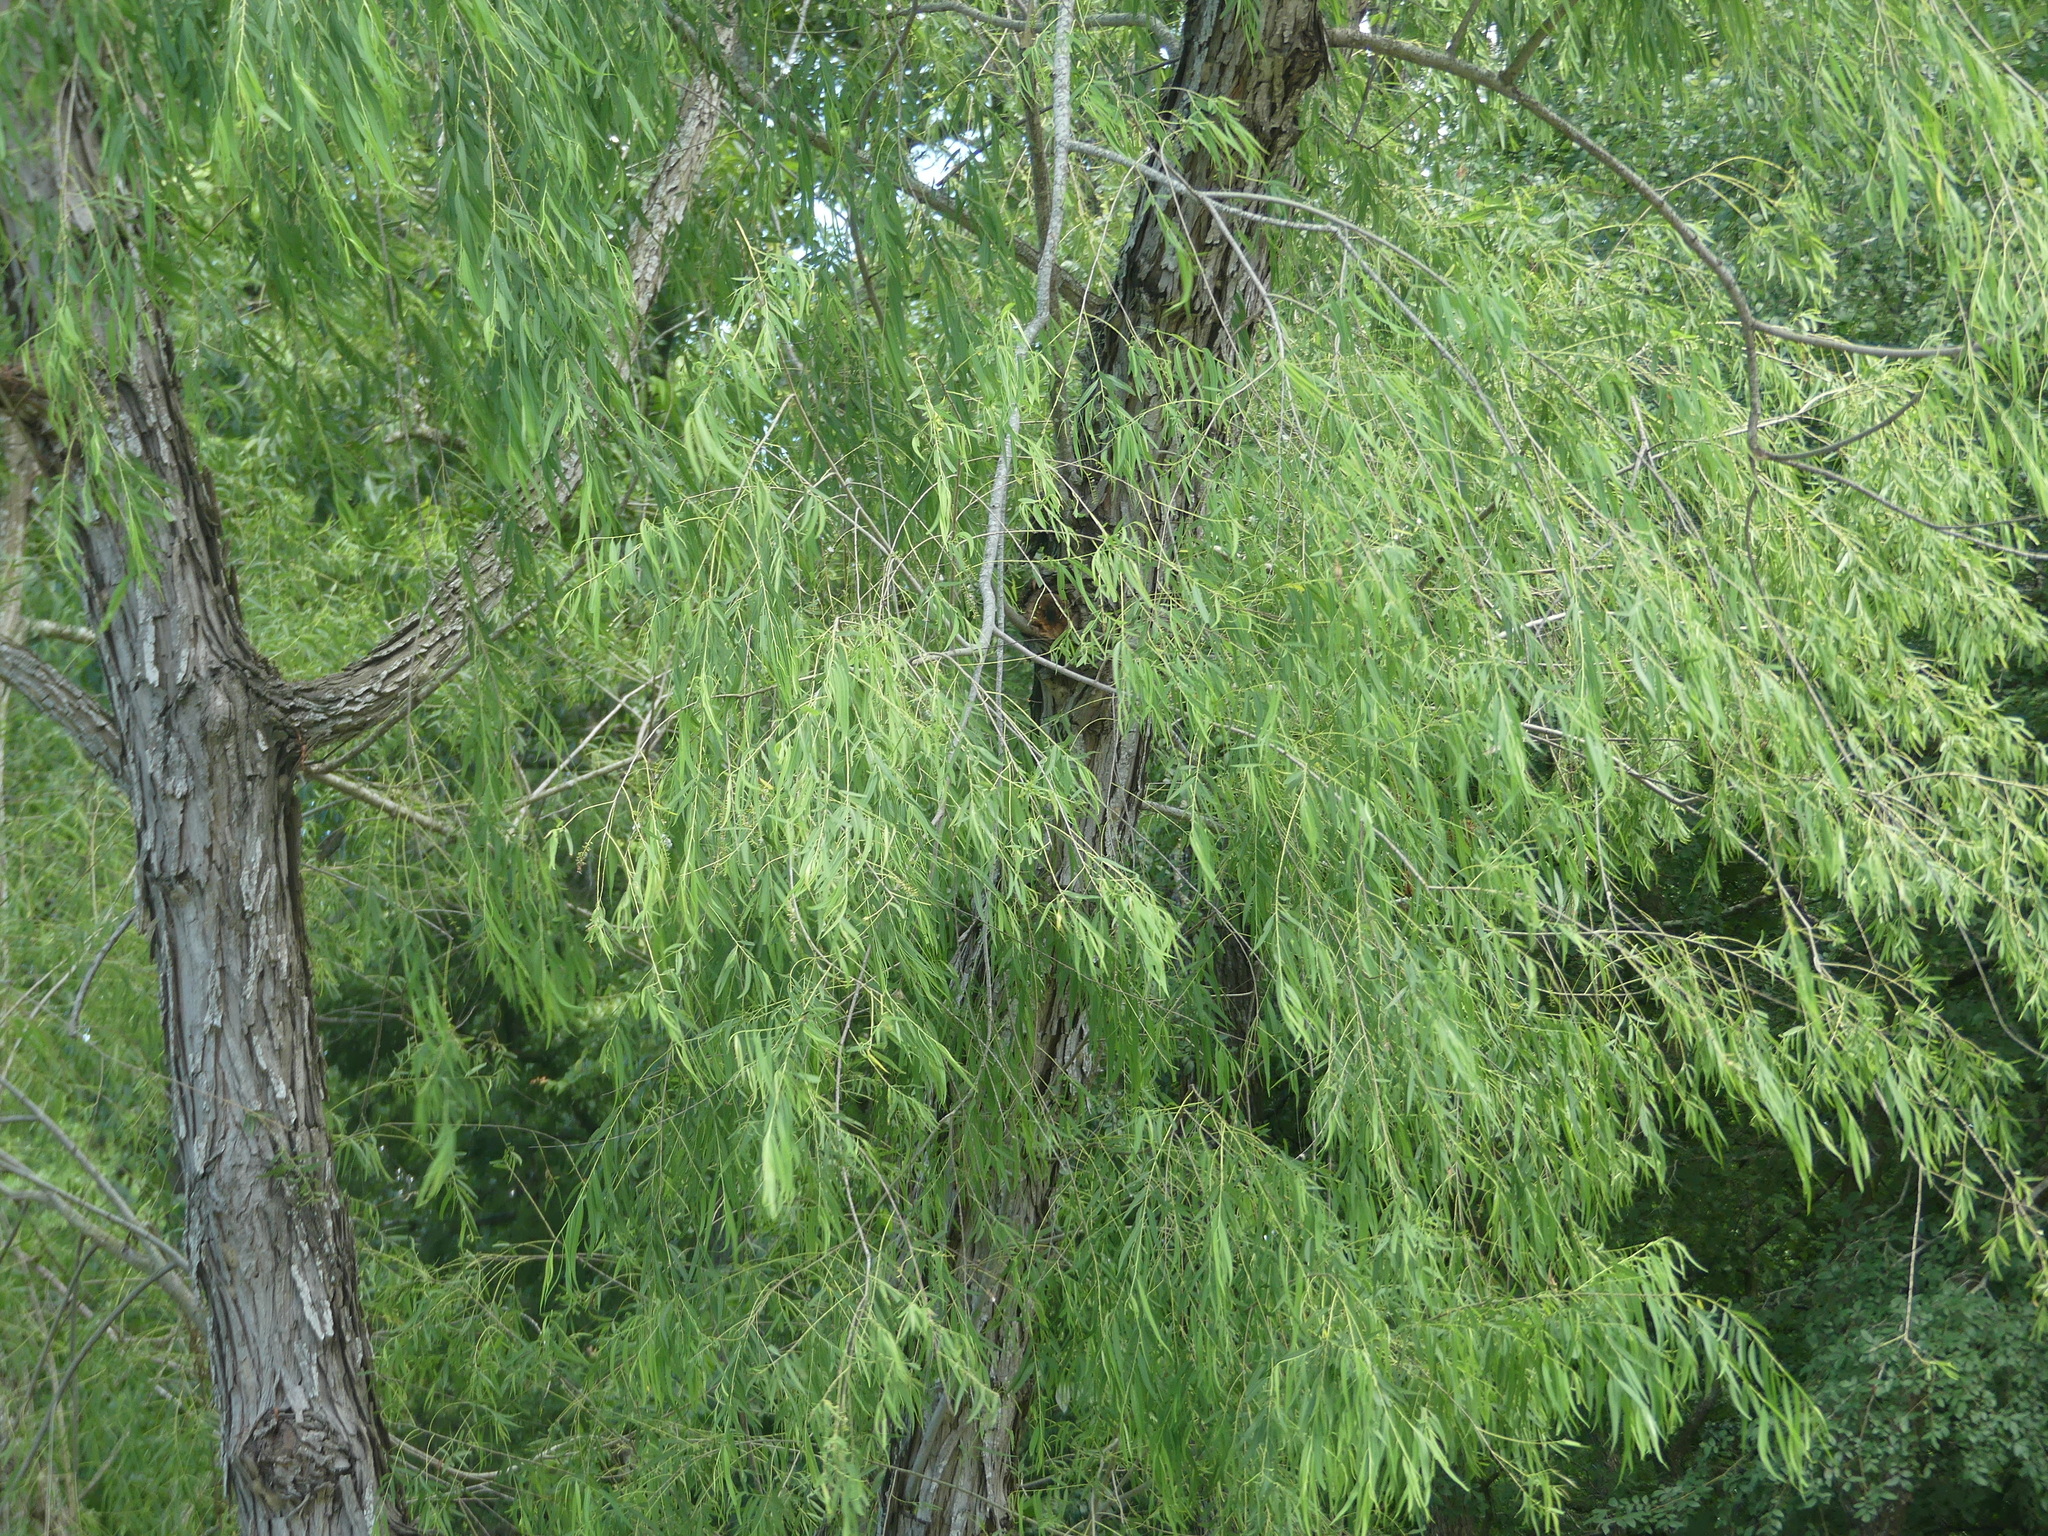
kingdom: Plantae
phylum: Tracheophyta
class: Magnoliopsida
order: Malpighiales
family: Salicaceae
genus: Salix
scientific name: Salix nigra
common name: Black willow
